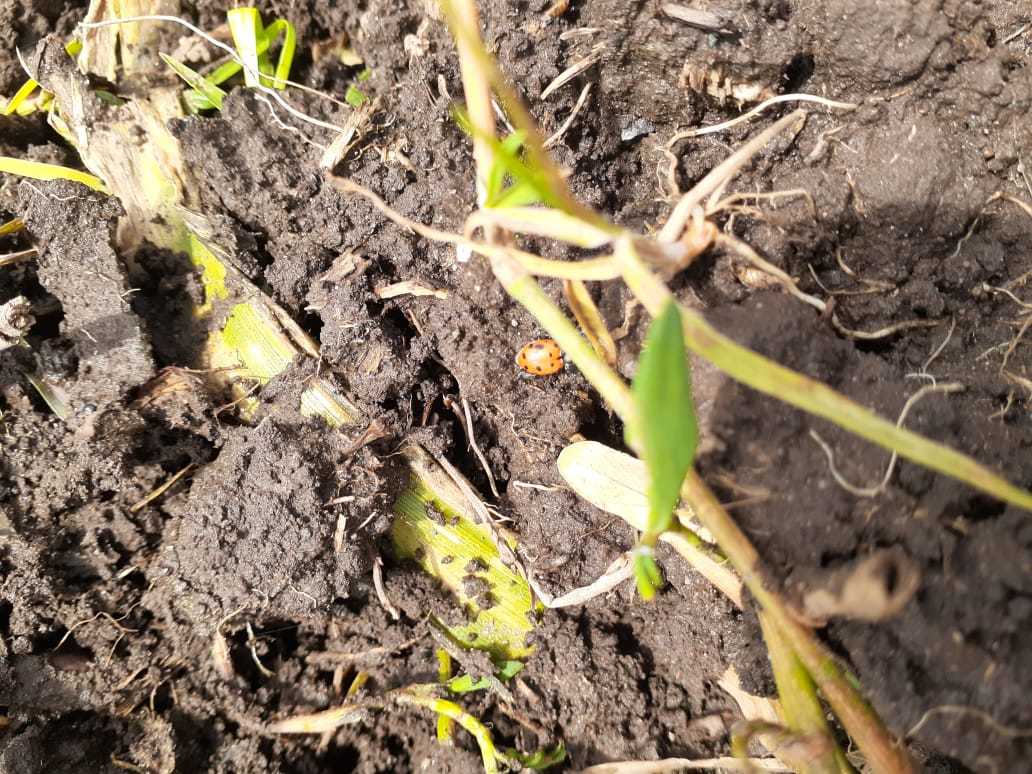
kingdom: Animalia
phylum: Arthropoda
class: Insecta
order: Coleoptera
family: Coccinellidae
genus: Hippodamia
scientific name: Hippodamia convergens
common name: Convergent lady beetle
